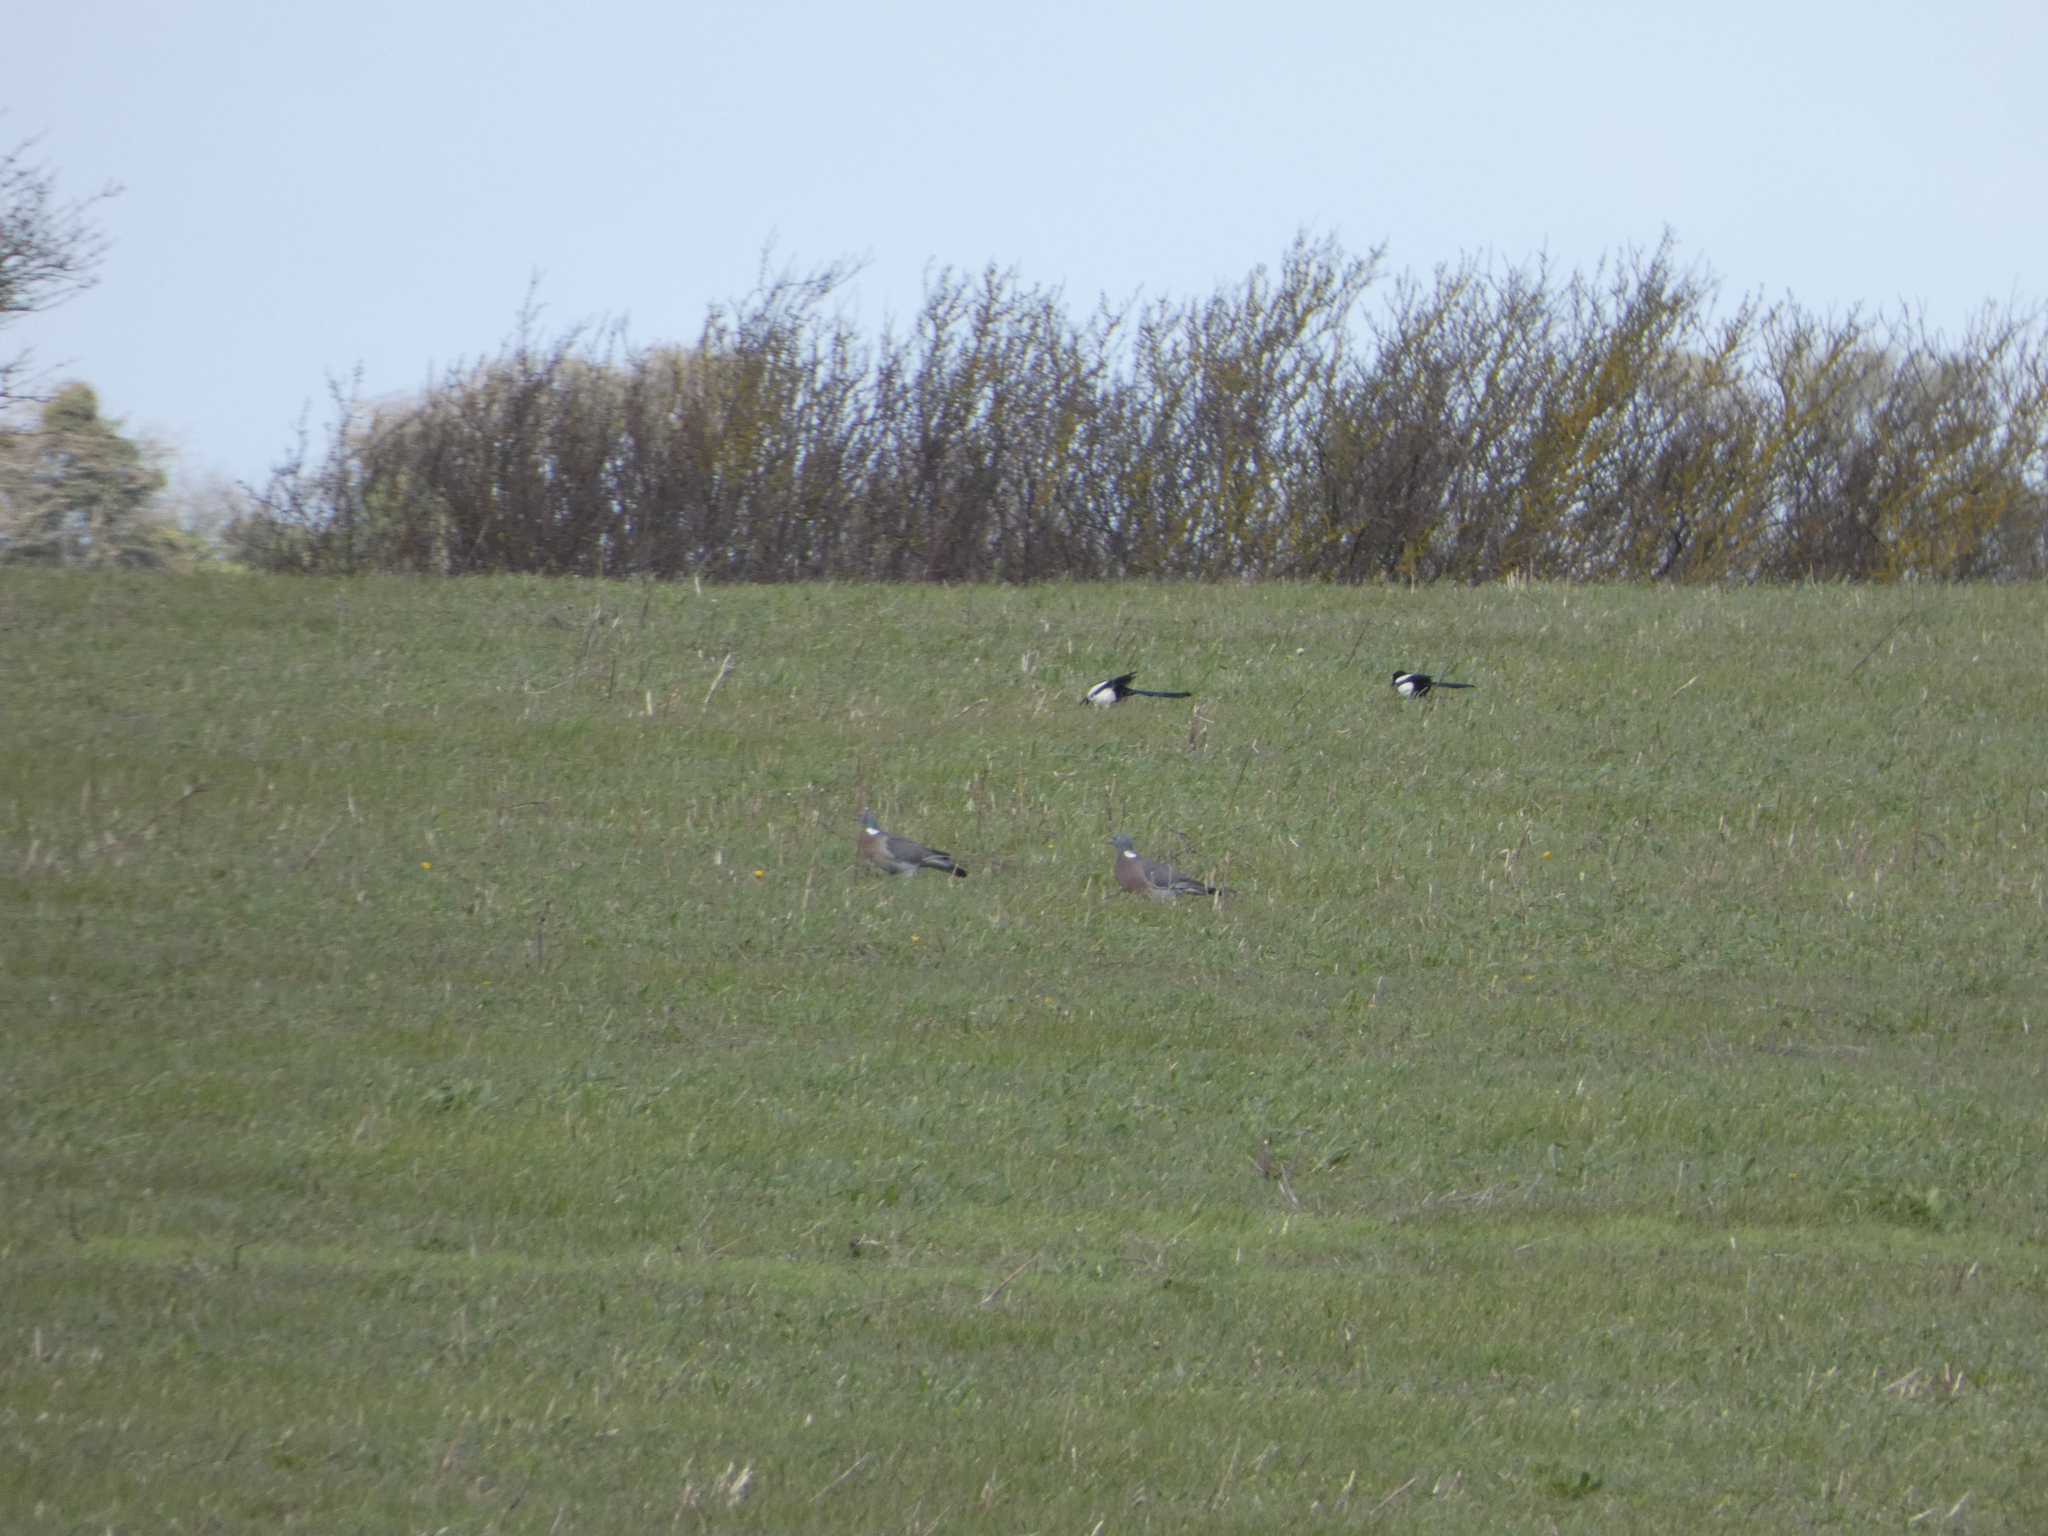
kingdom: Animalia
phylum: Chordata
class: Aves
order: Columbiformes
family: Columbidae
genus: Columba
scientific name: Columba palumbus
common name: Common wood pigeon
